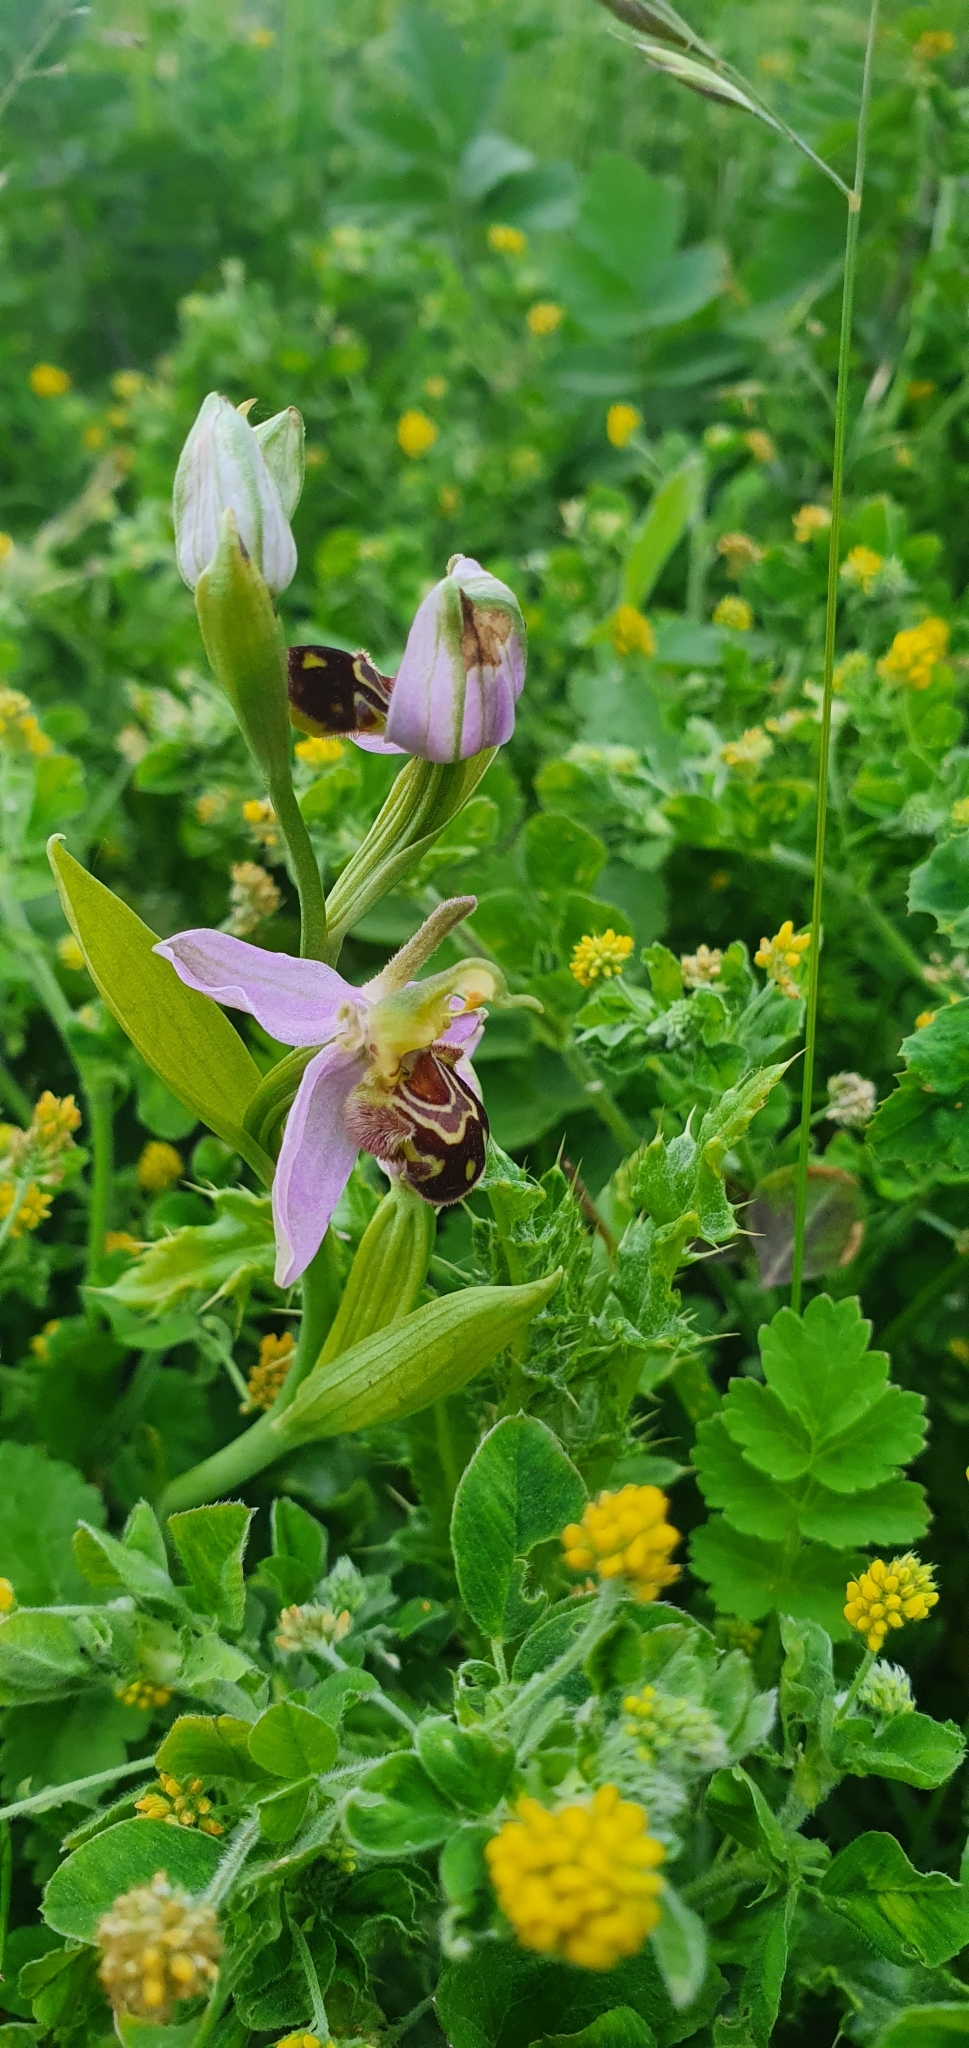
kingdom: Plantae
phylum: Tracheophyta
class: Liliopsida
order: Asparagales
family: Orchidaceae
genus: Ophrys
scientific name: Ophrys apifera
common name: Bee orchid
